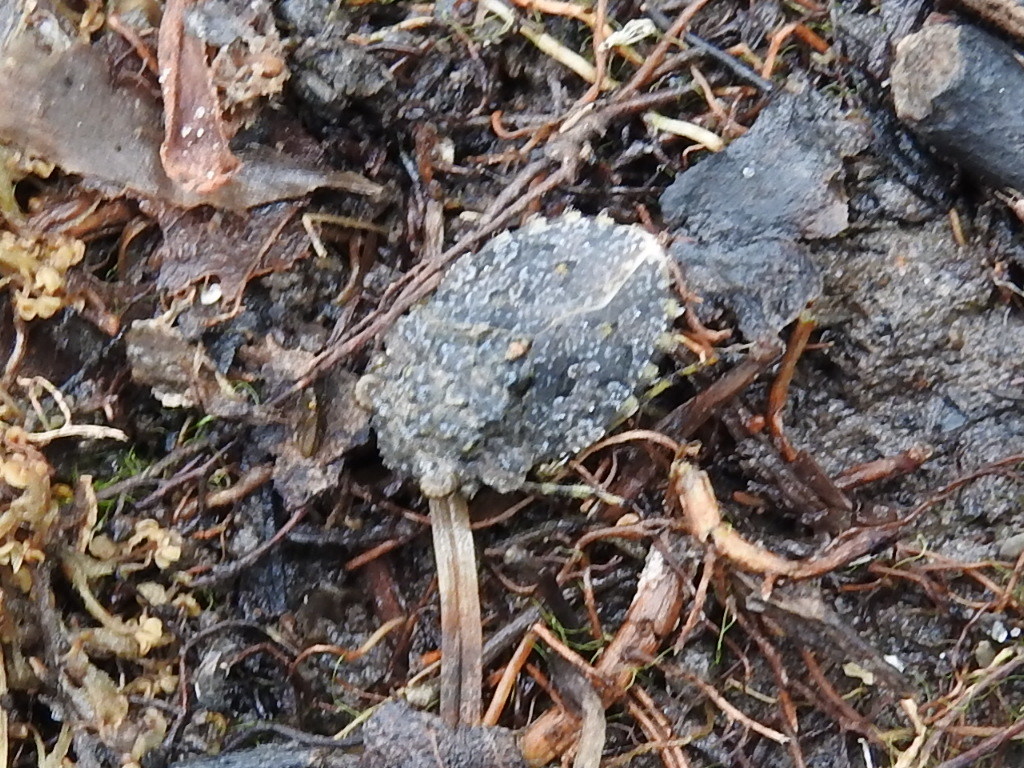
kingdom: Animalia
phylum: Arthropoda
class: Insecta
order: Hemiptera
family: Gelastocoridae
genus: Gelastocoris
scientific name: Gelastocoris oculatus
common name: Toad bug
